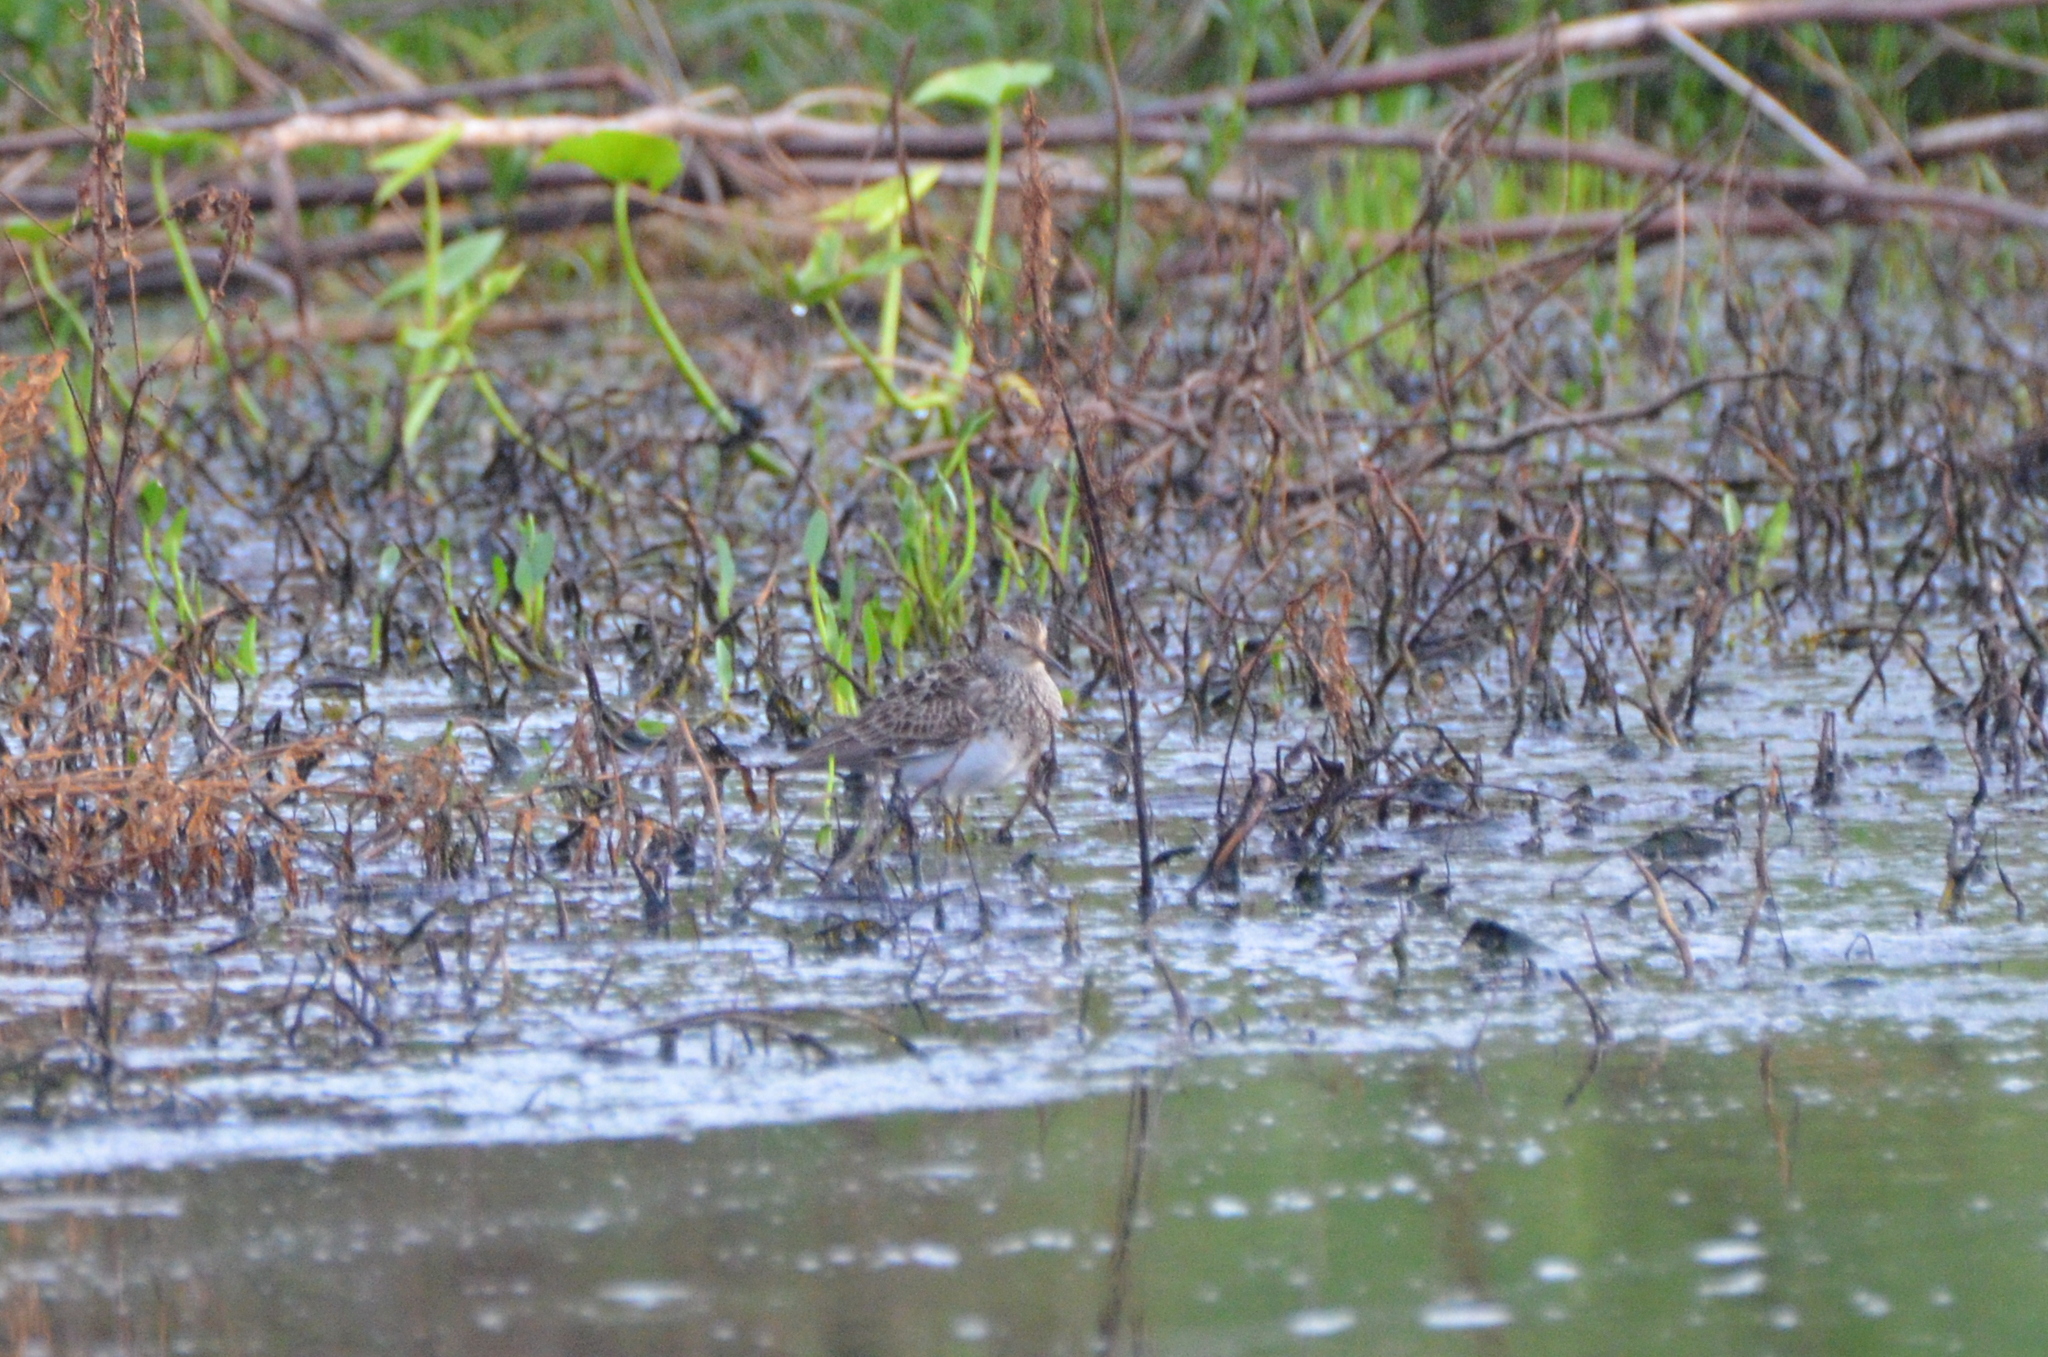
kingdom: Animalia
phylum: Chordata
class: Aves
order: Charadriiformes
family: Scolopacidae
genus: Calidris
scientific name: Calidris melanotos
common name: Pectoral sandpiper
